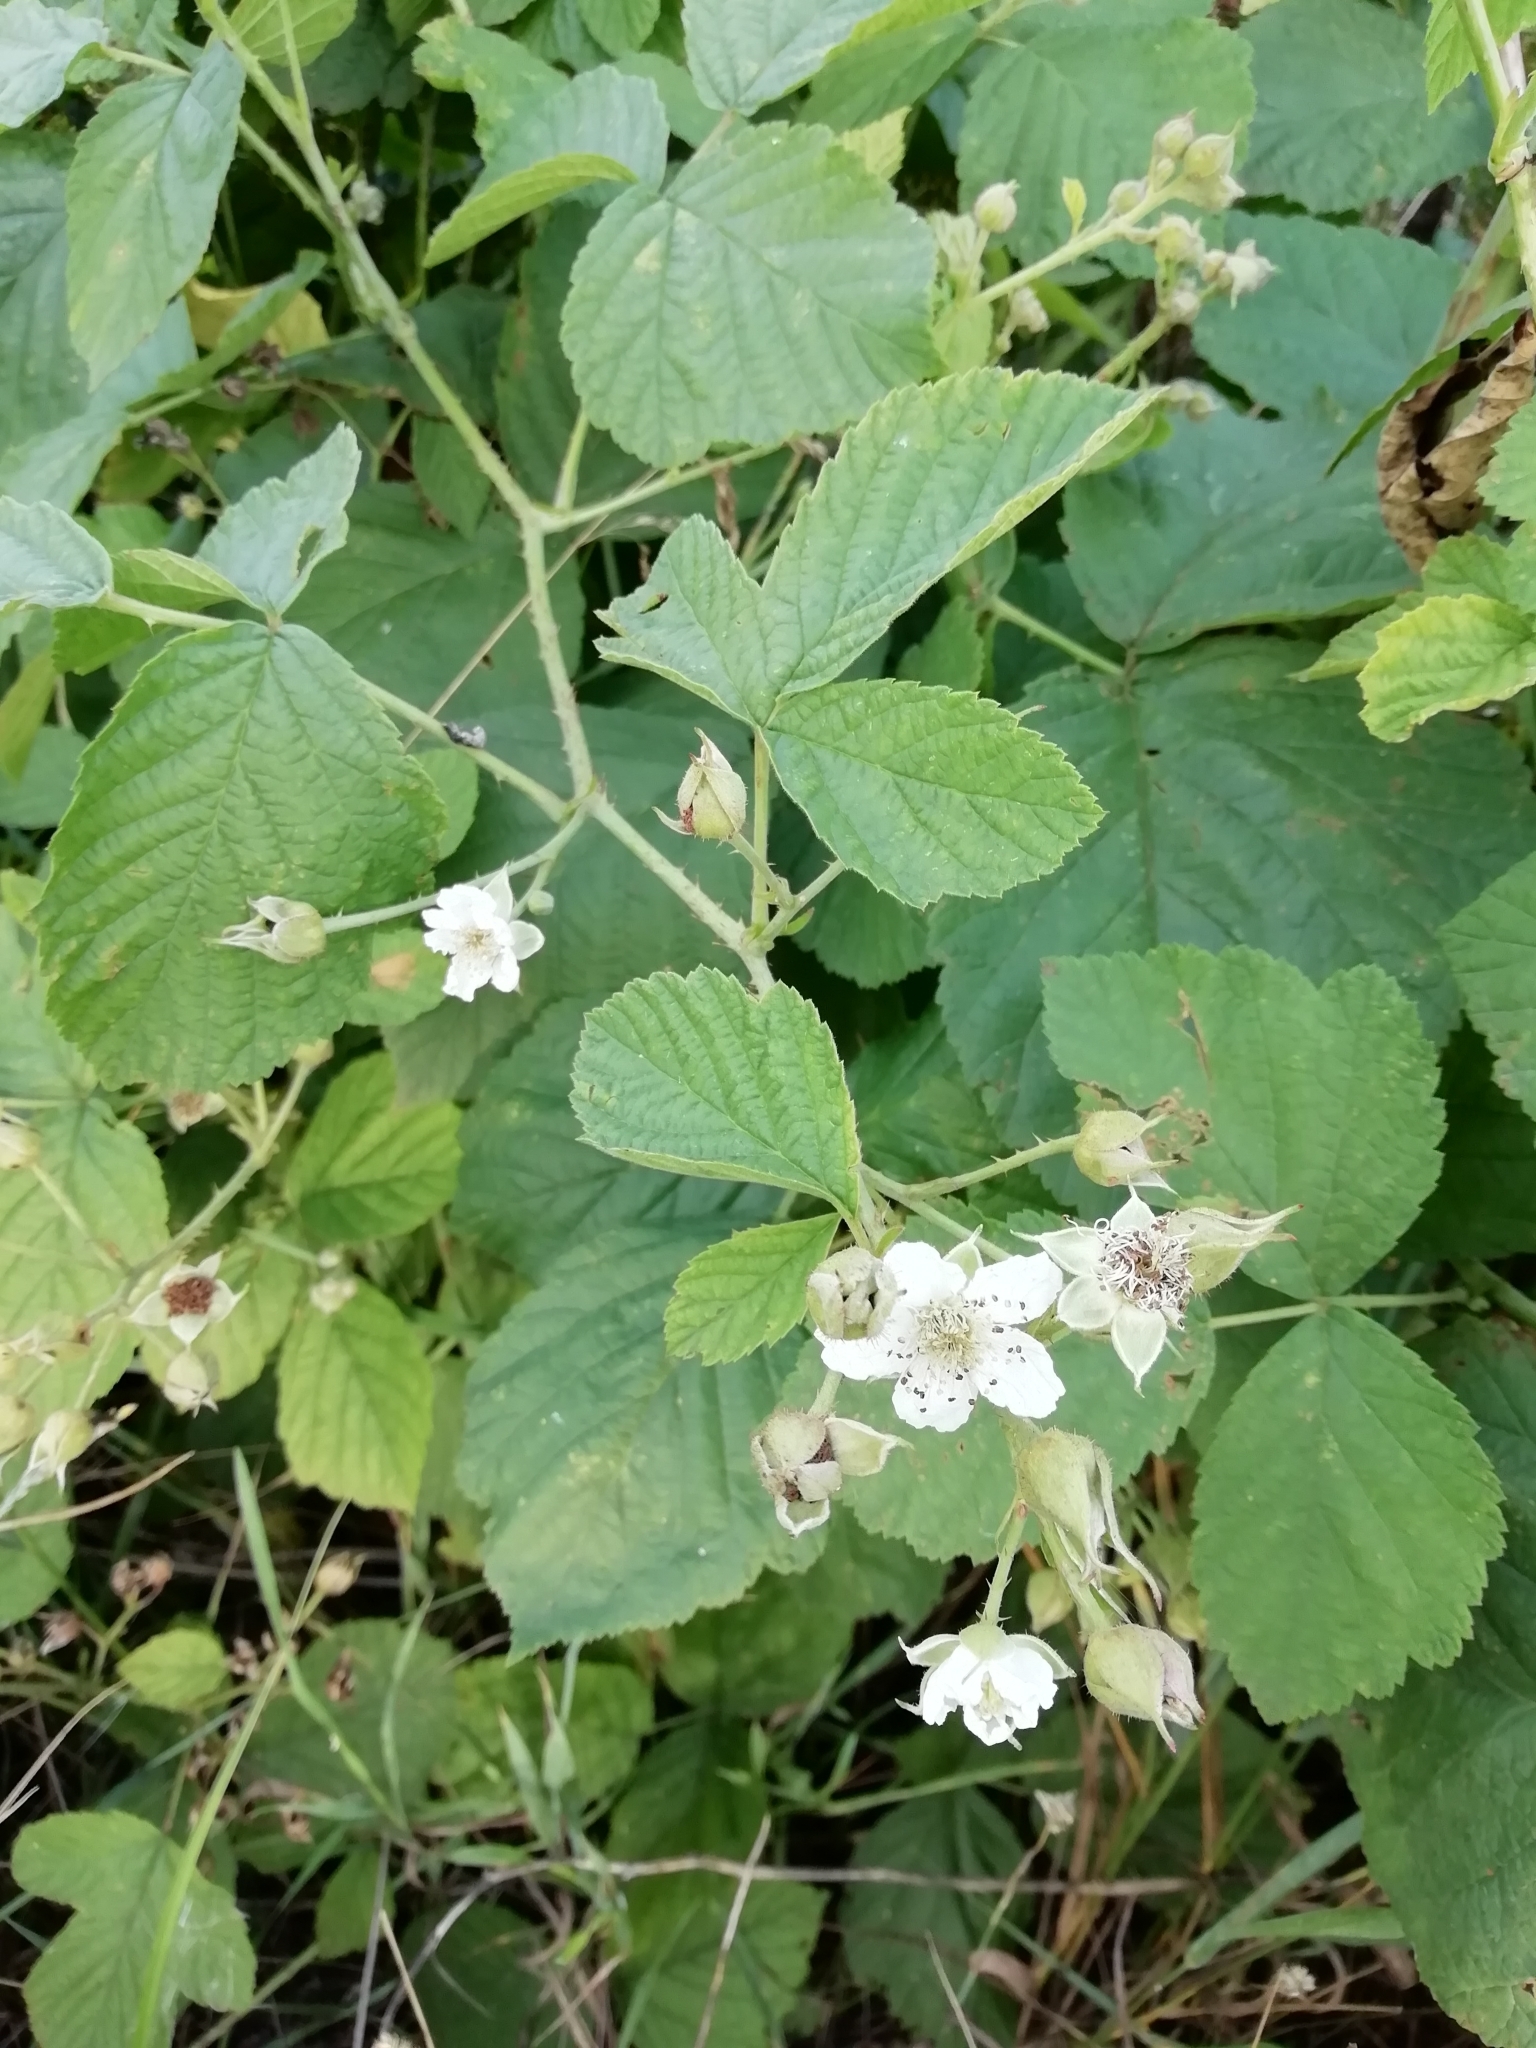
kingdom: Plantae
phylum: Tracheophyta
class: Magnoliopsida
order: Rosales
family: Rosaceae
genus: Rubus
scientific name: Rubus caesius
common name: Dewberry
